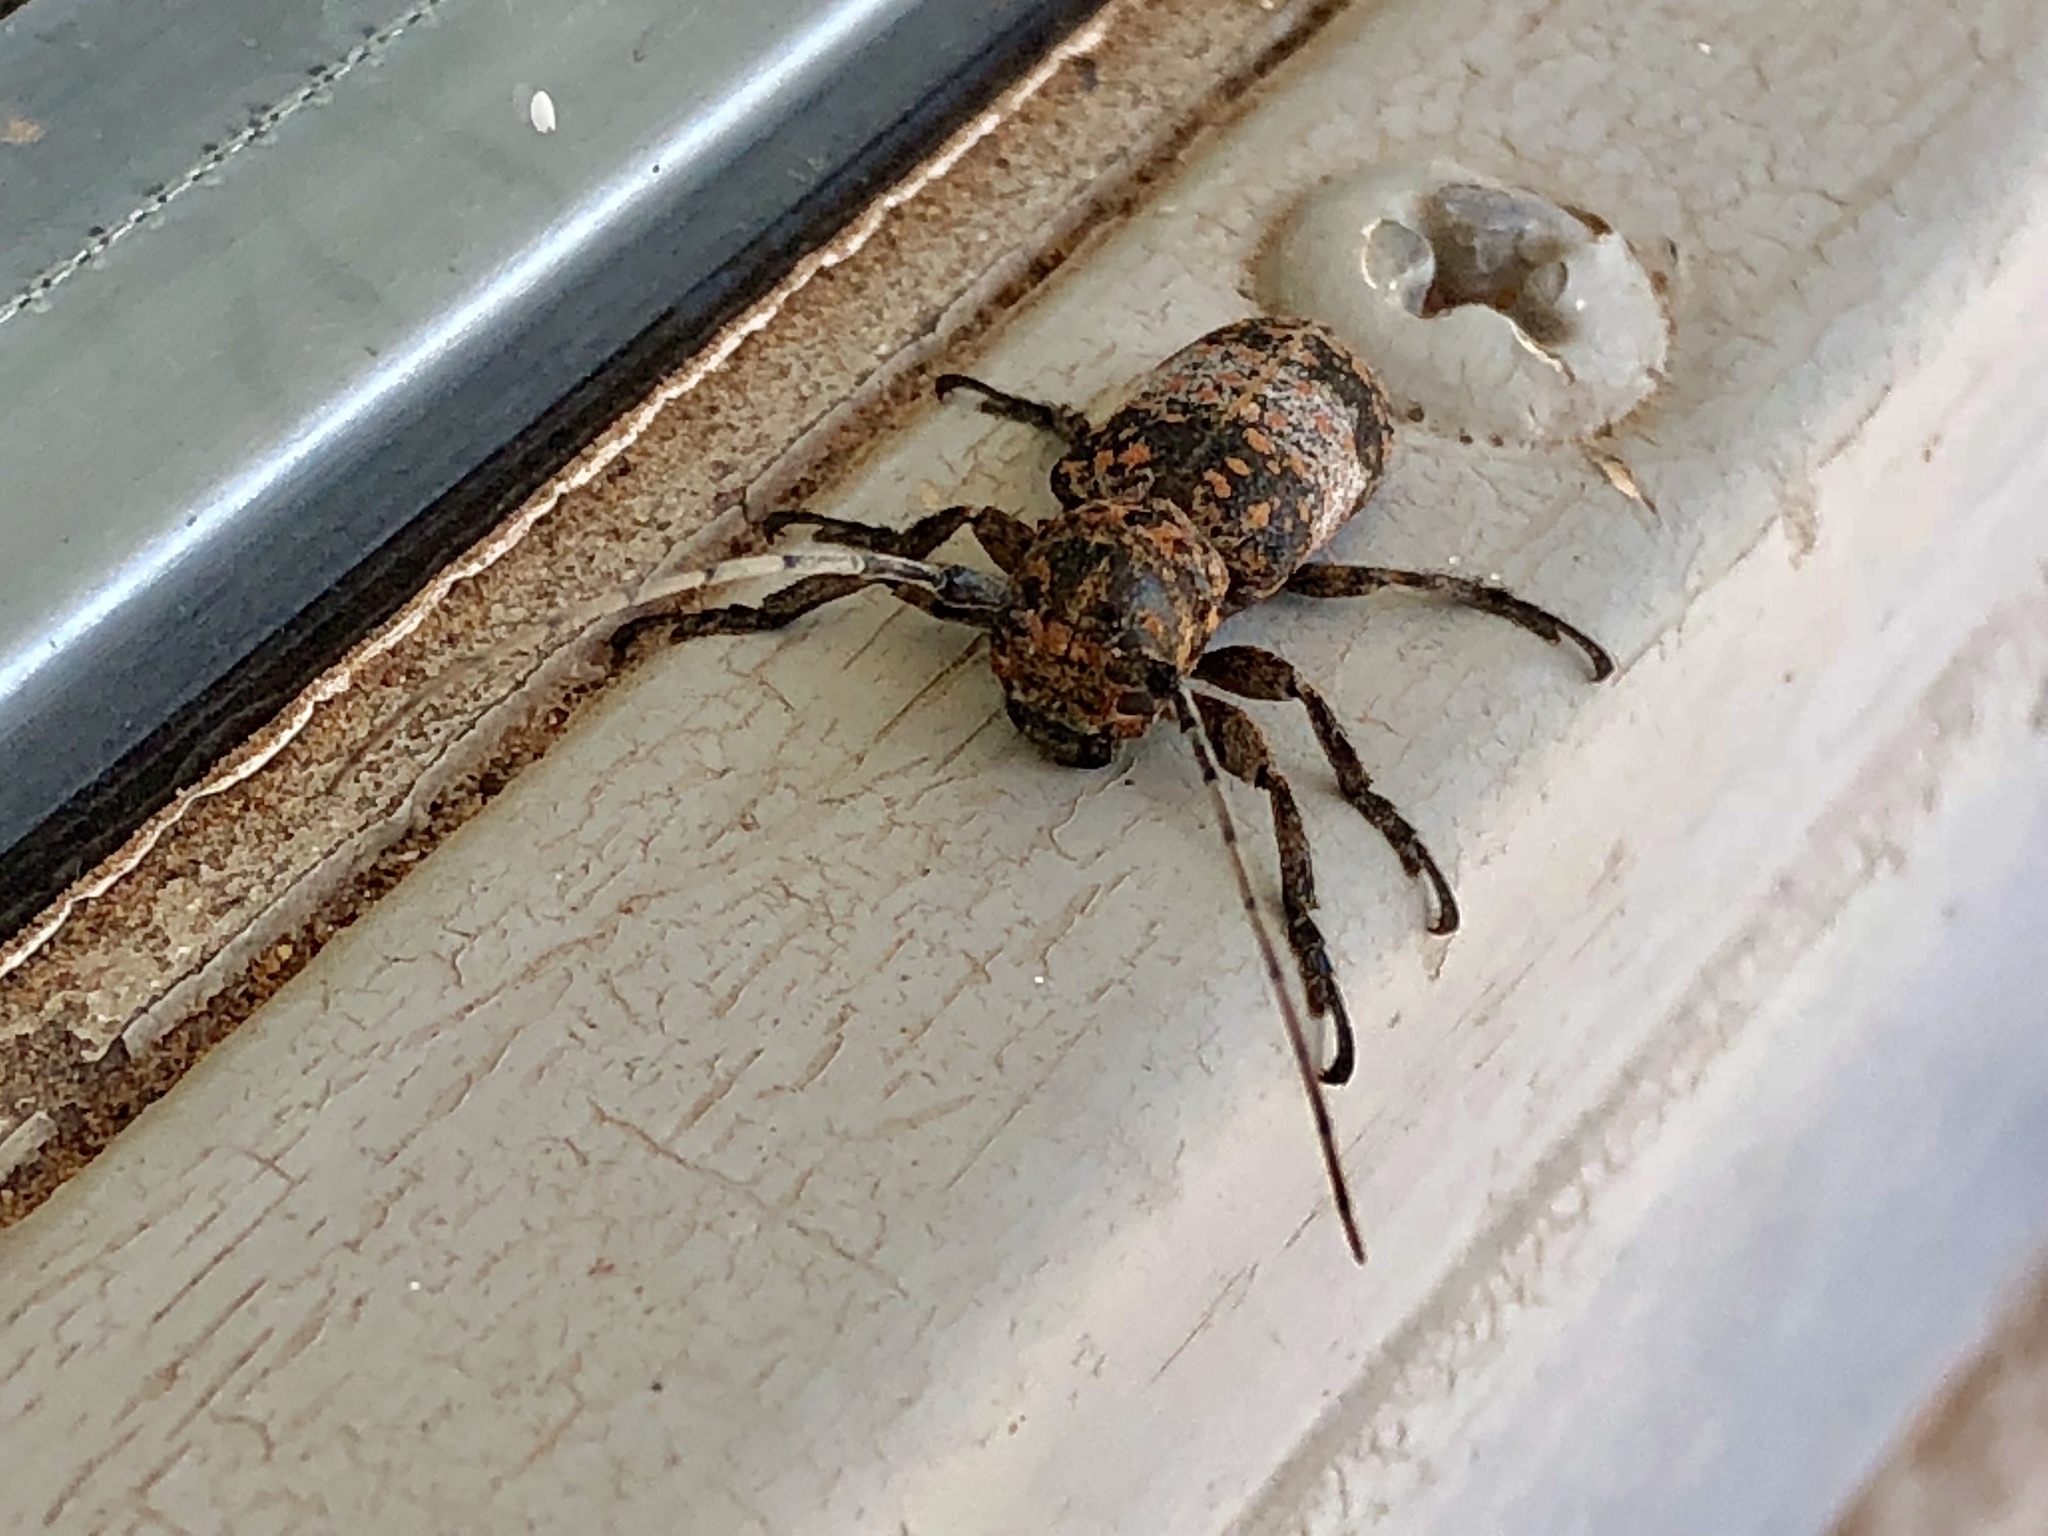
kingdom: Animalia
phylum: Arthropoda
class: Insecta
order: Coleoptera
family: Cerambycidae
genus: Oncideres
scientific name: Oncideres rhodosticta
